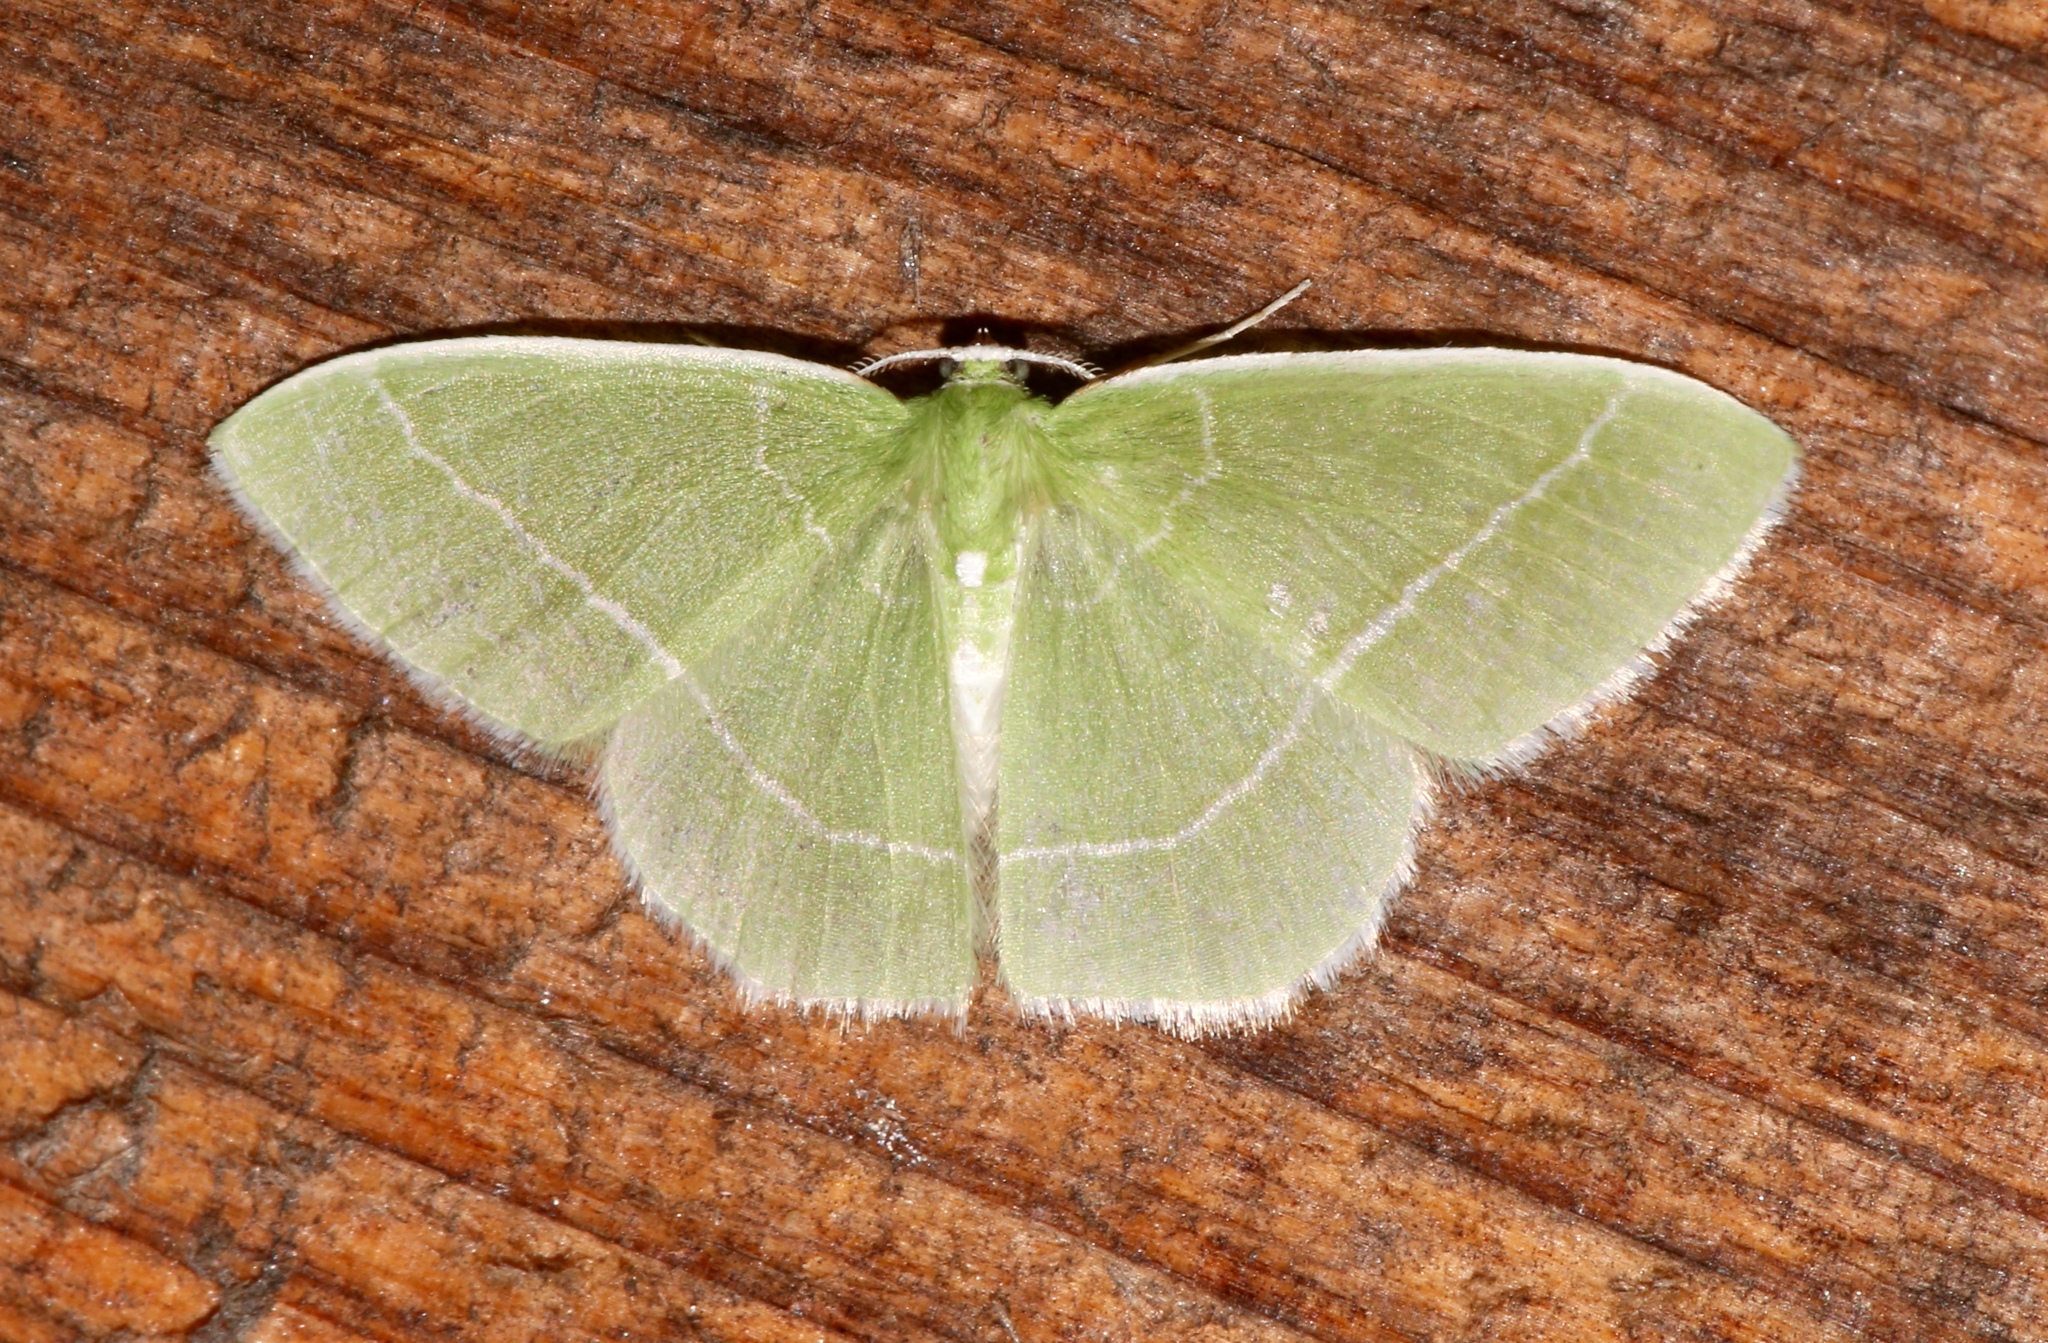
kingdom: Animalia
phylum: Arthropoda
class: Insecta
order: Lepidoptera
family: Geometridae
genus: Nemoria
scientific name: Nemoria mimosaria
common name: White-fringed emerald
